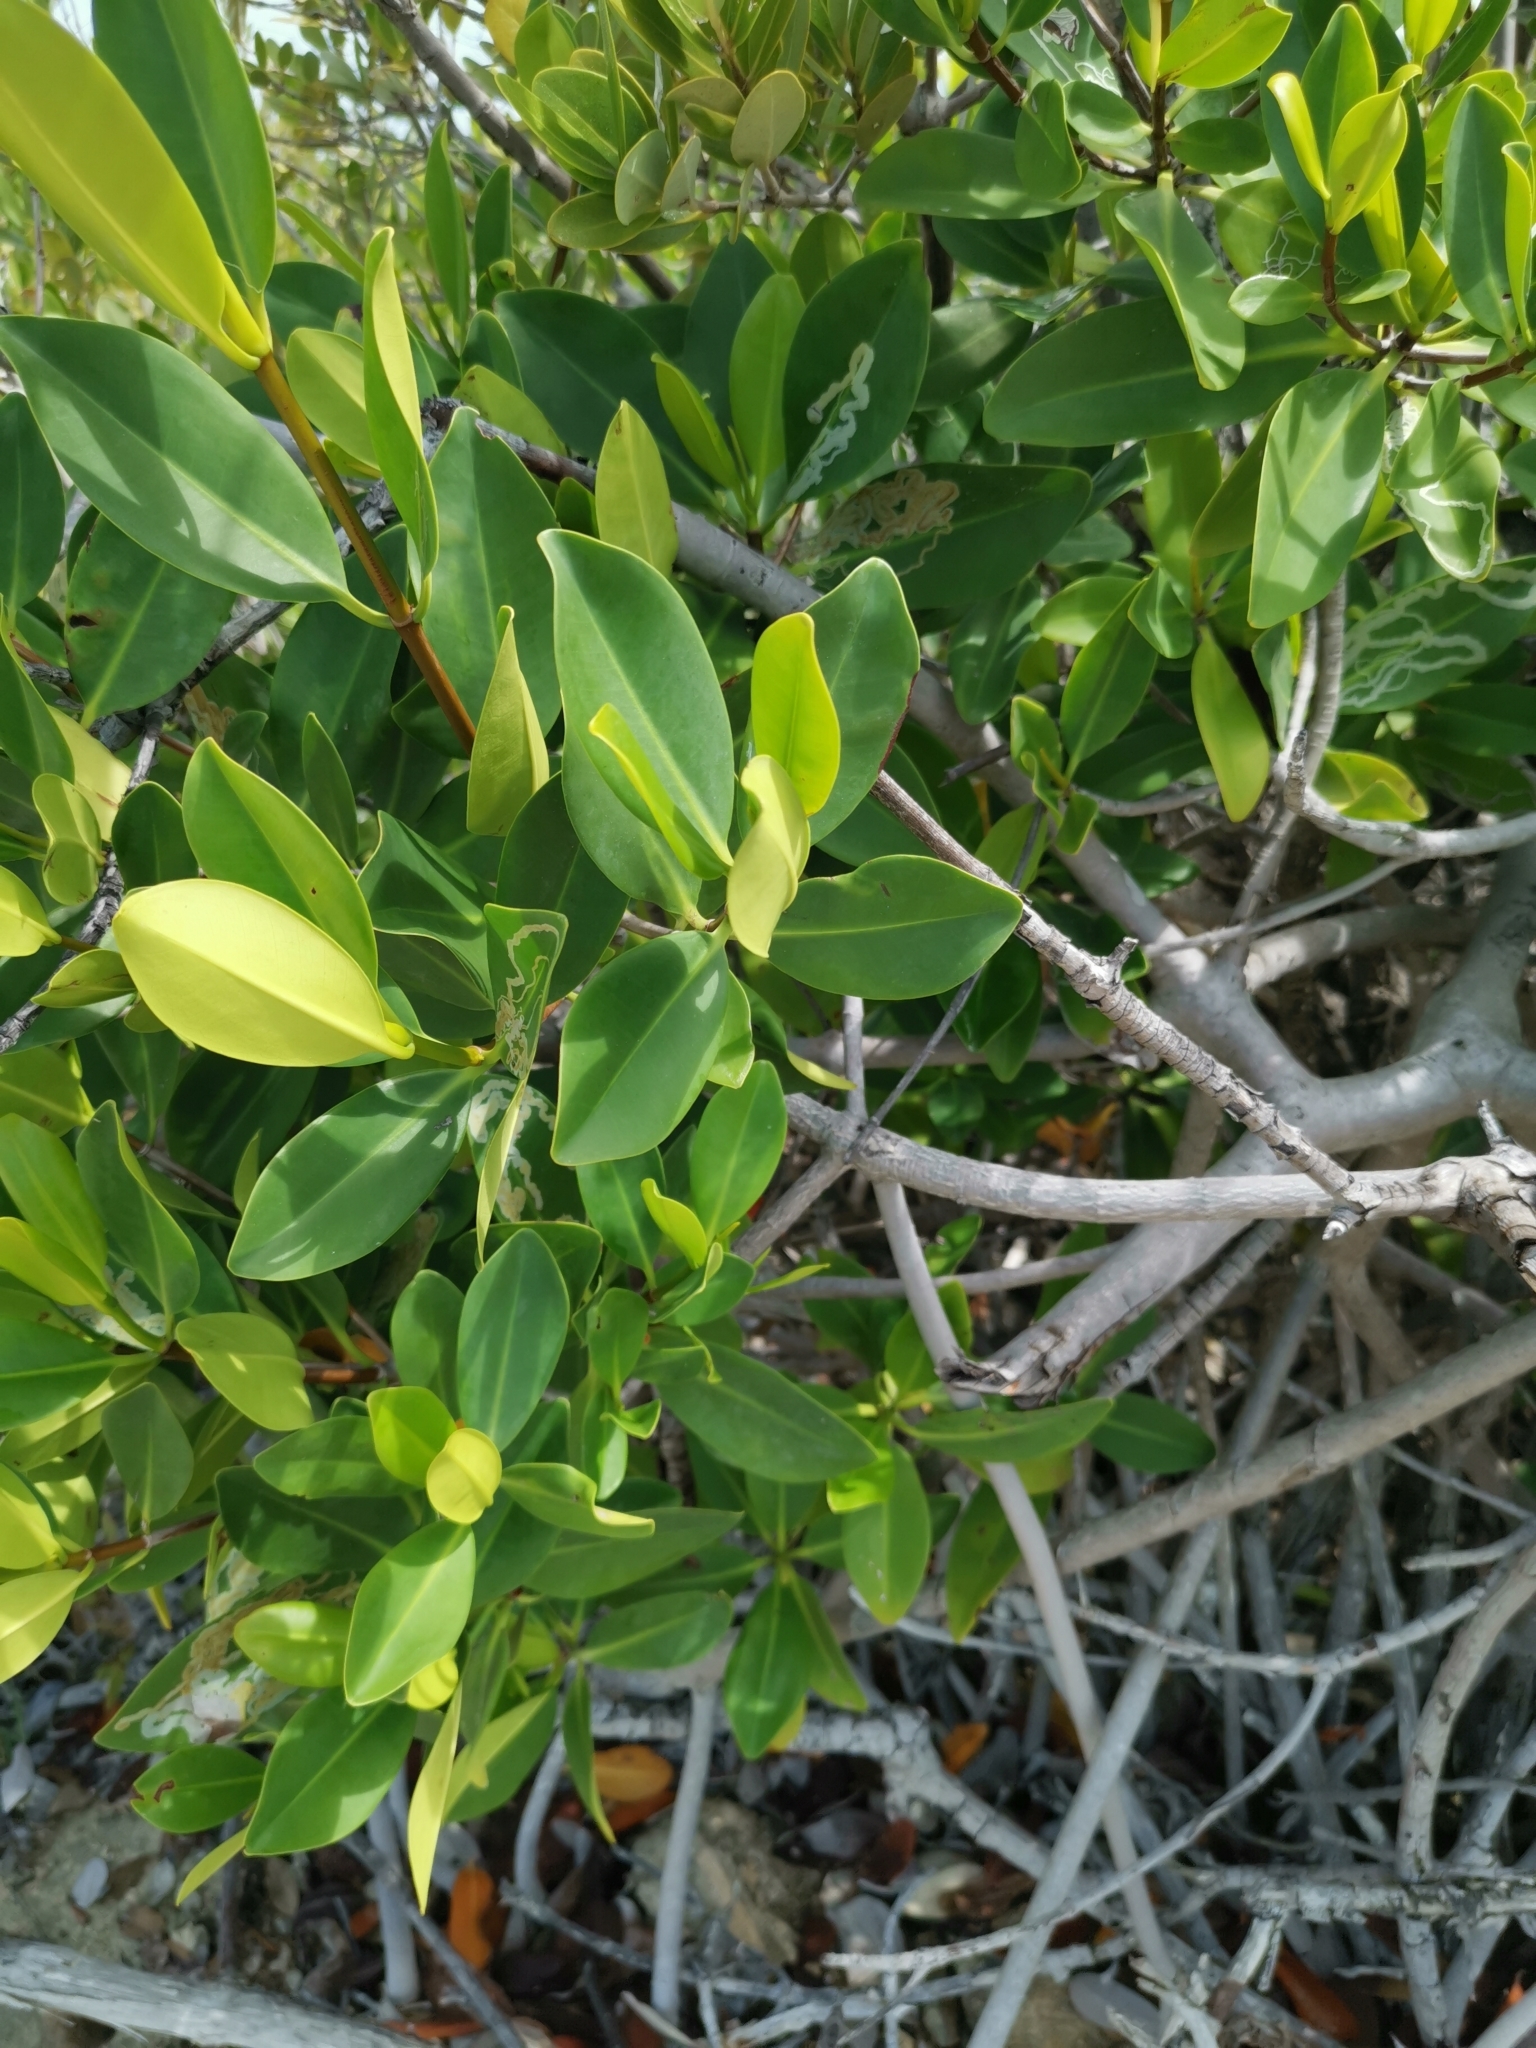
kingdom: Plantae
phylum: Tracheophyta
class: Magnoliopsida
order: Malpighiales
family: Rhizophoraceae
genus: Rhizophora
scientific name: Rhizophora mangle
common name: Red mangrove
